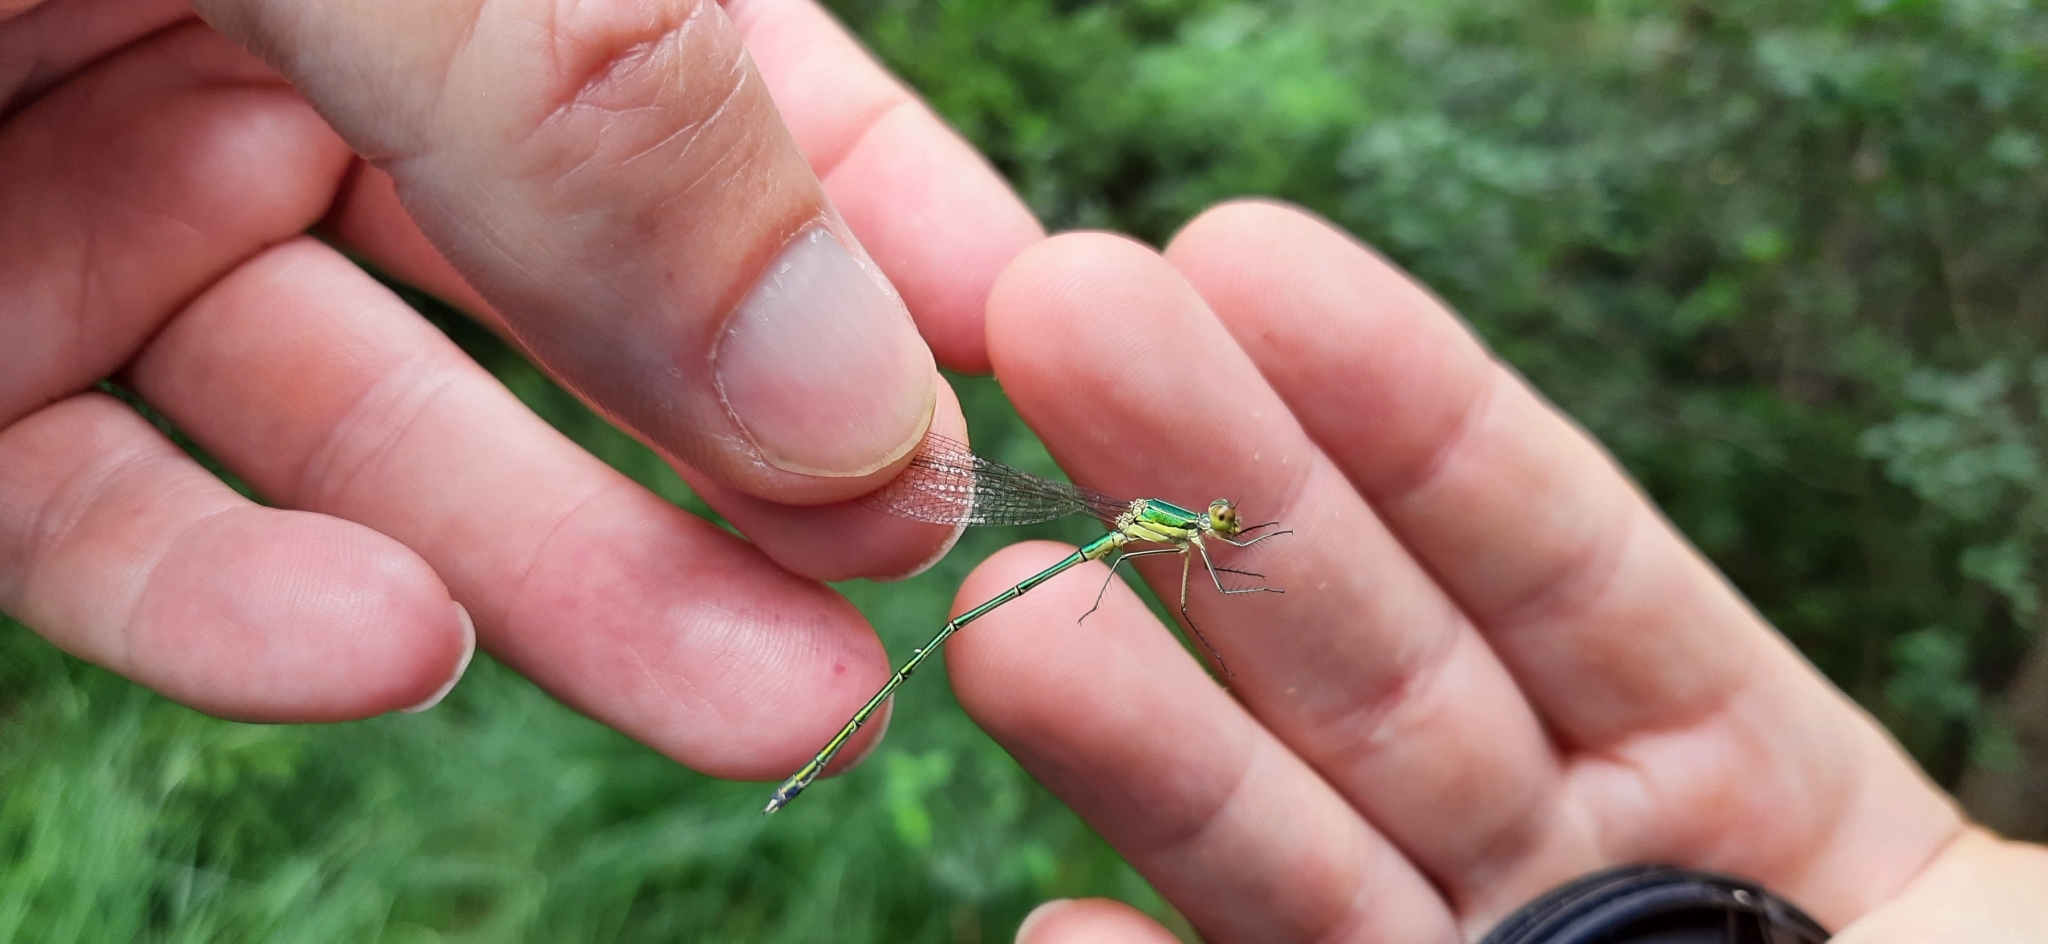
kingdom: Animalia
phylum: Arthropoda
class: Insecta
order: Odonata
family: Lestidae
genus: Lestes
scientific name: Lestes virens
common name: Small emerald spreadwing
